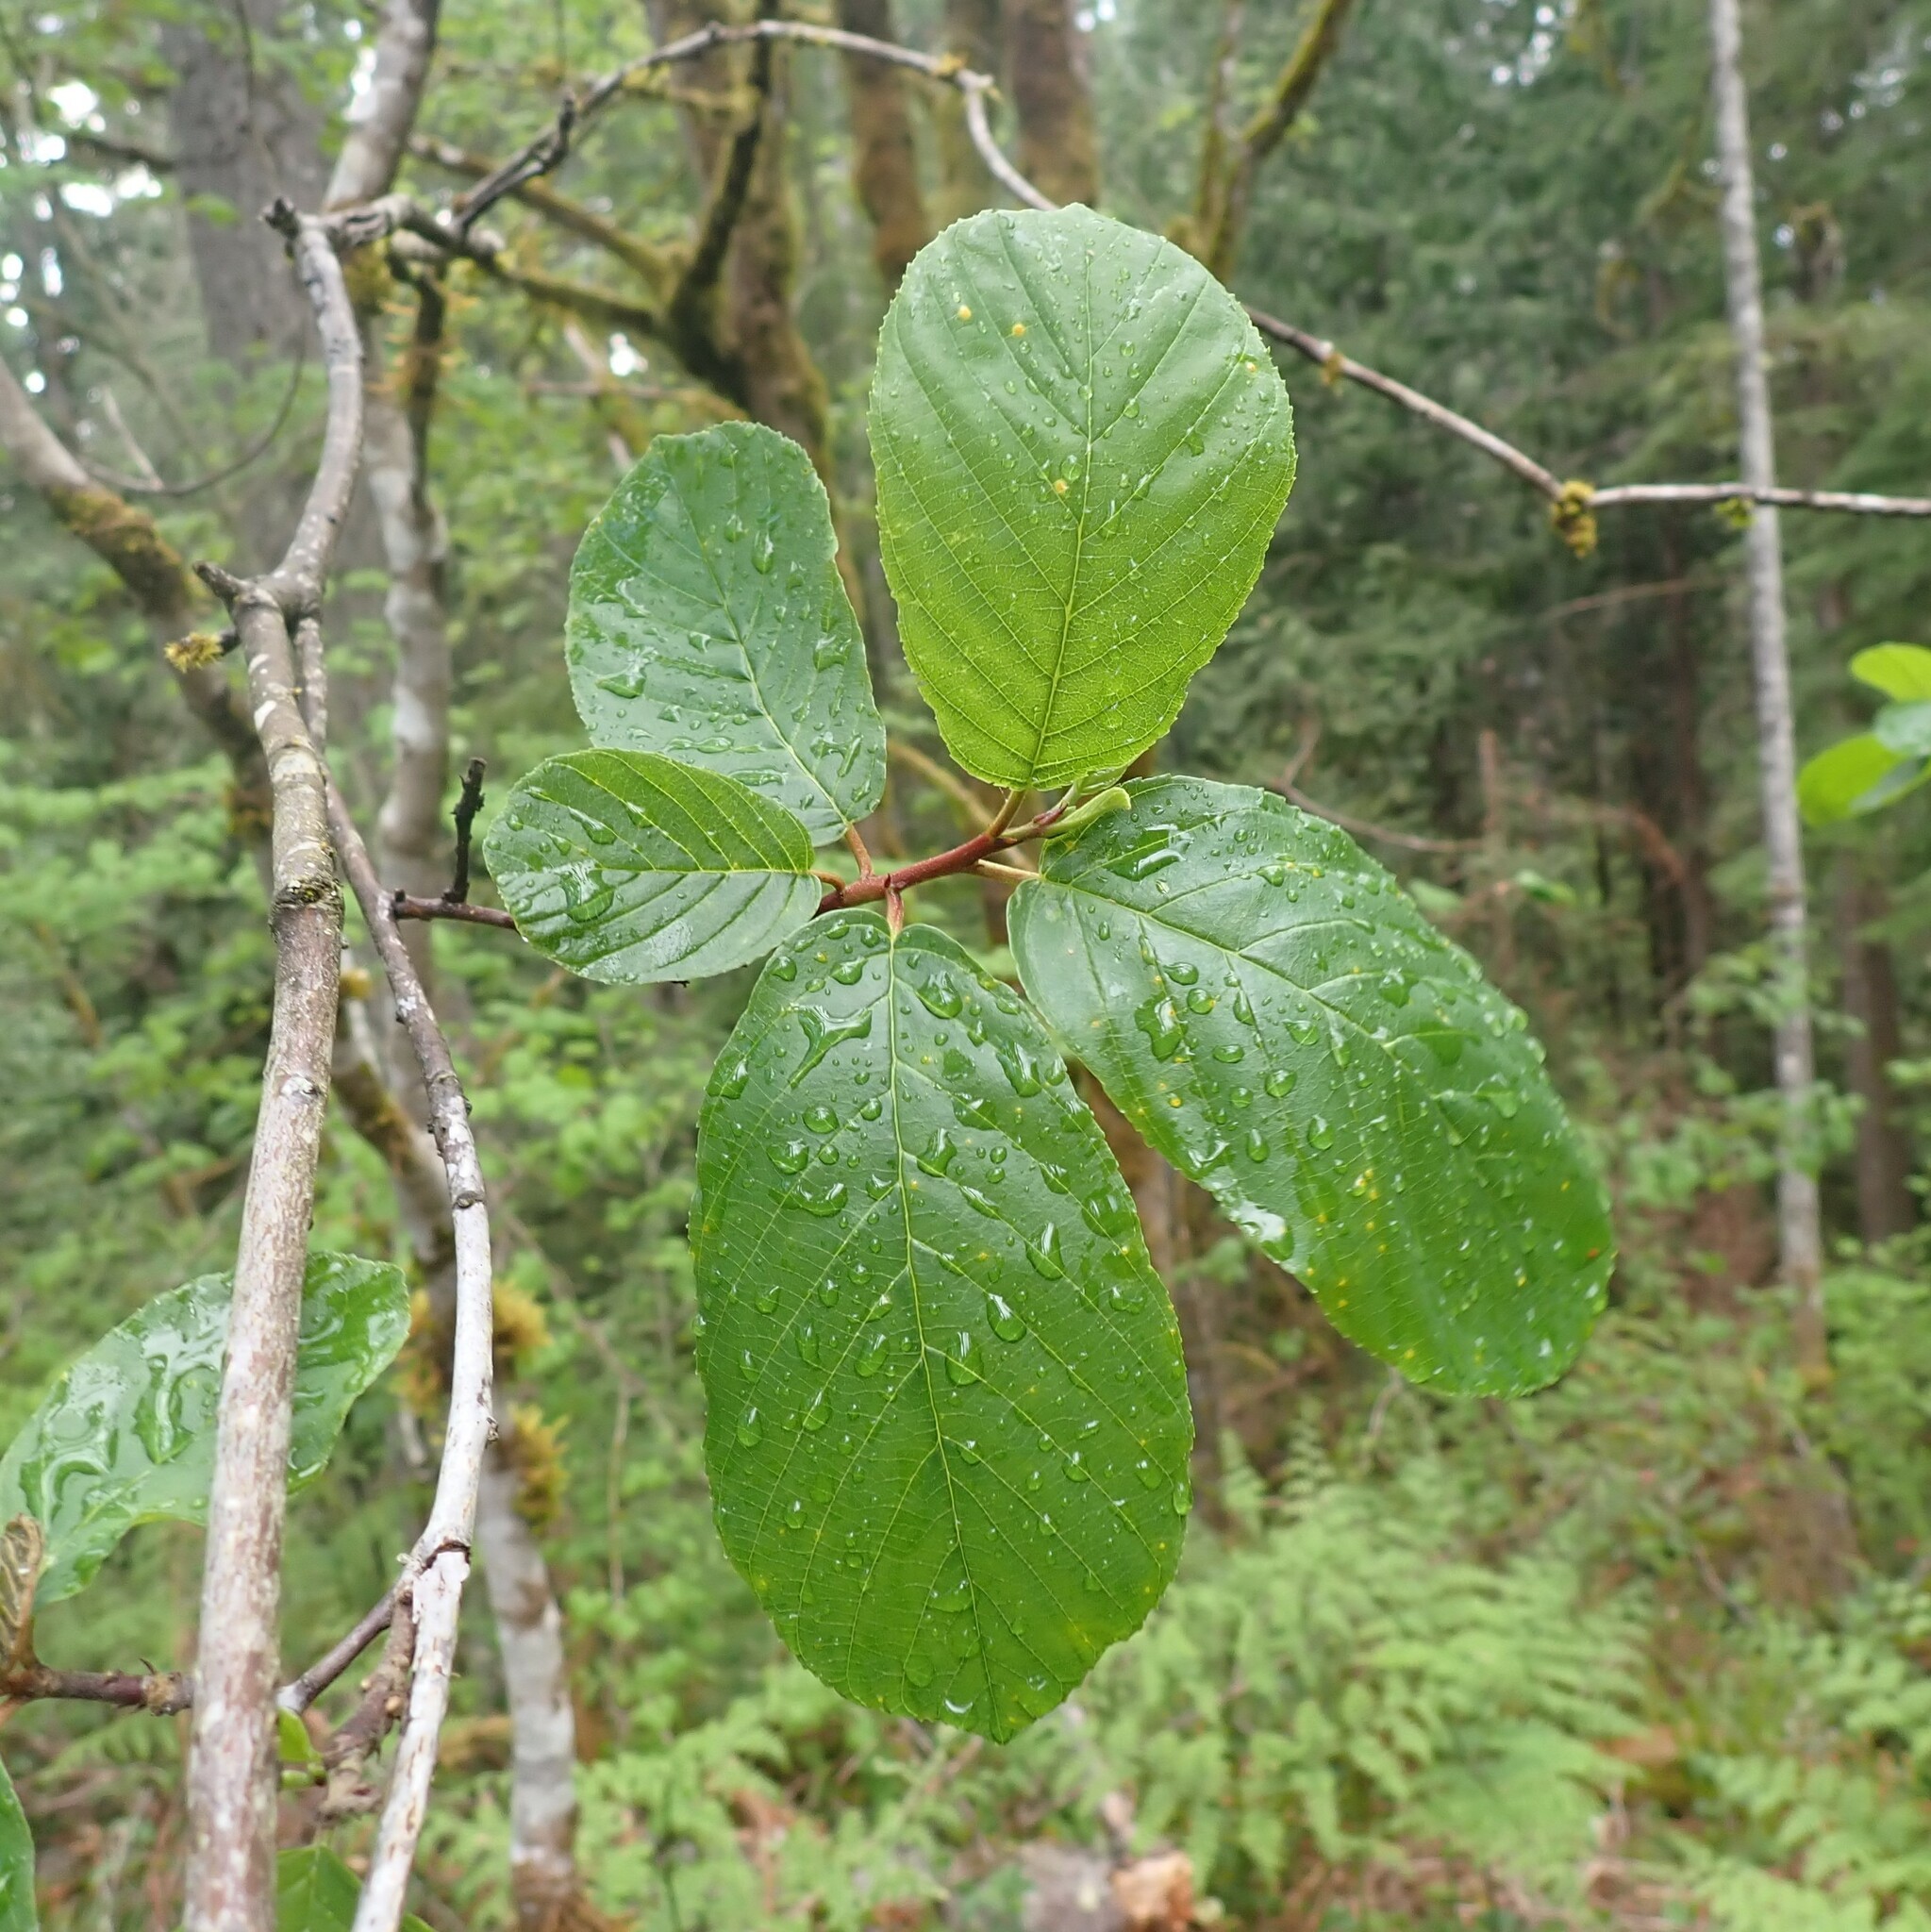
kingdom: Plantae
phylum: Tracheophyta
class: Magnoliopsida
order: Rosales
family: Rhamnaceae
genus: Frangula
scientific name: Frangula purshiana
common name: Cascara buckthorn
